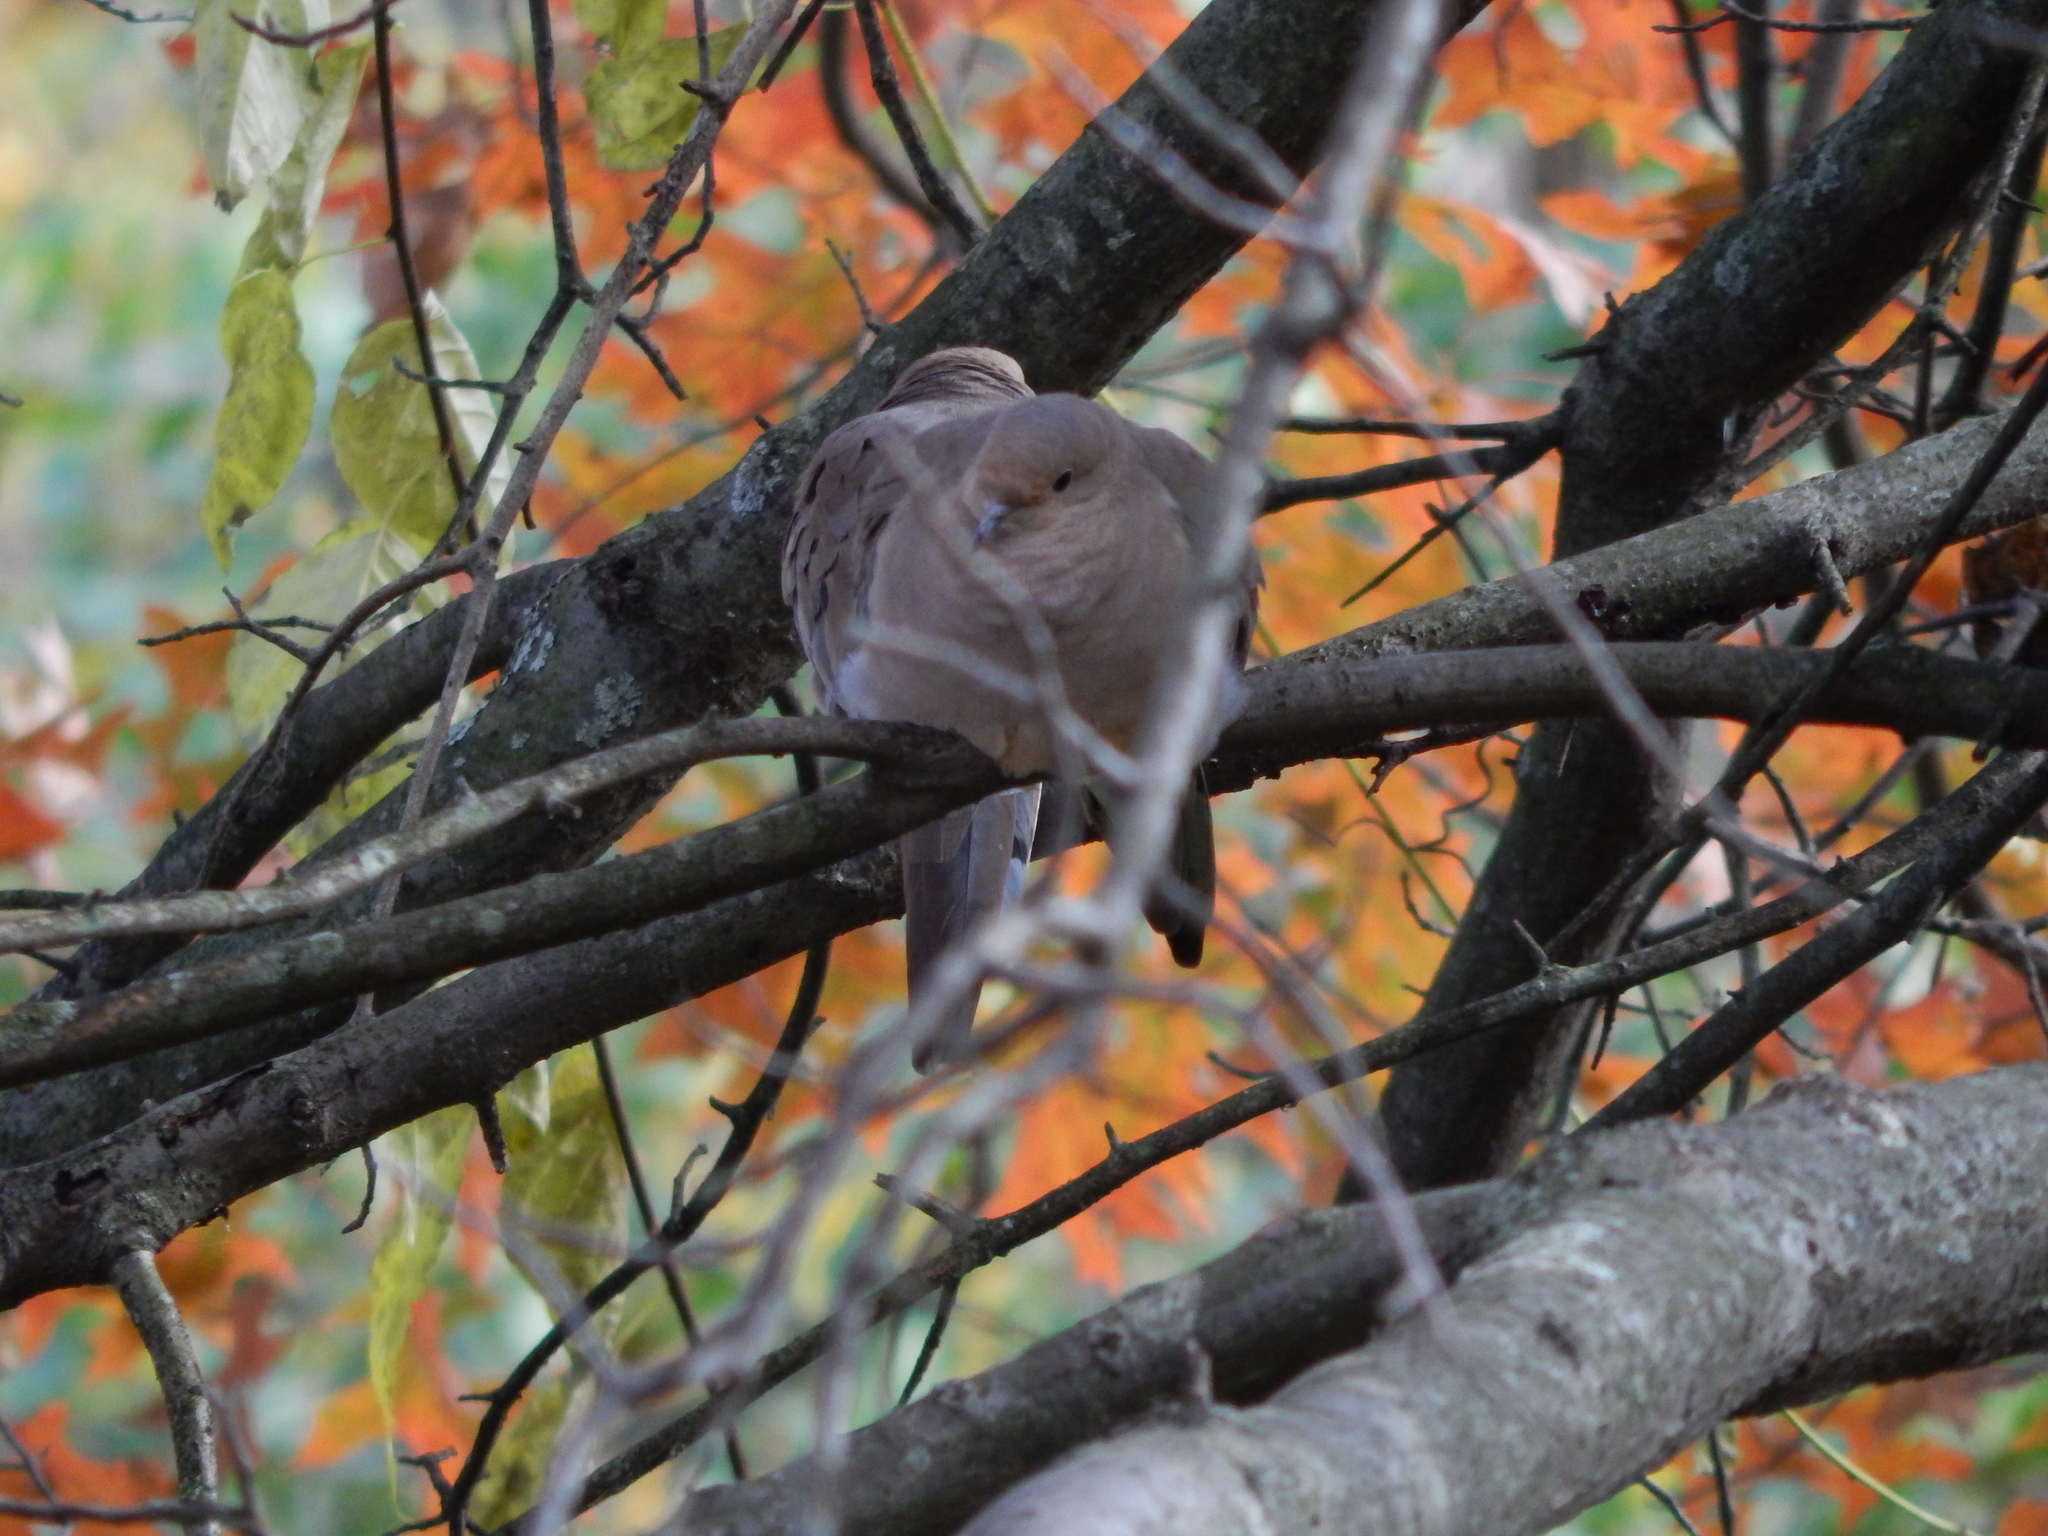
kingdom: Animalia
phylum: Chordata
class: Aves
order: Columbiformes
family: Columbidae
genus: Zenaida
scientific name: Zenaida macroura
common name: Mourning dove
